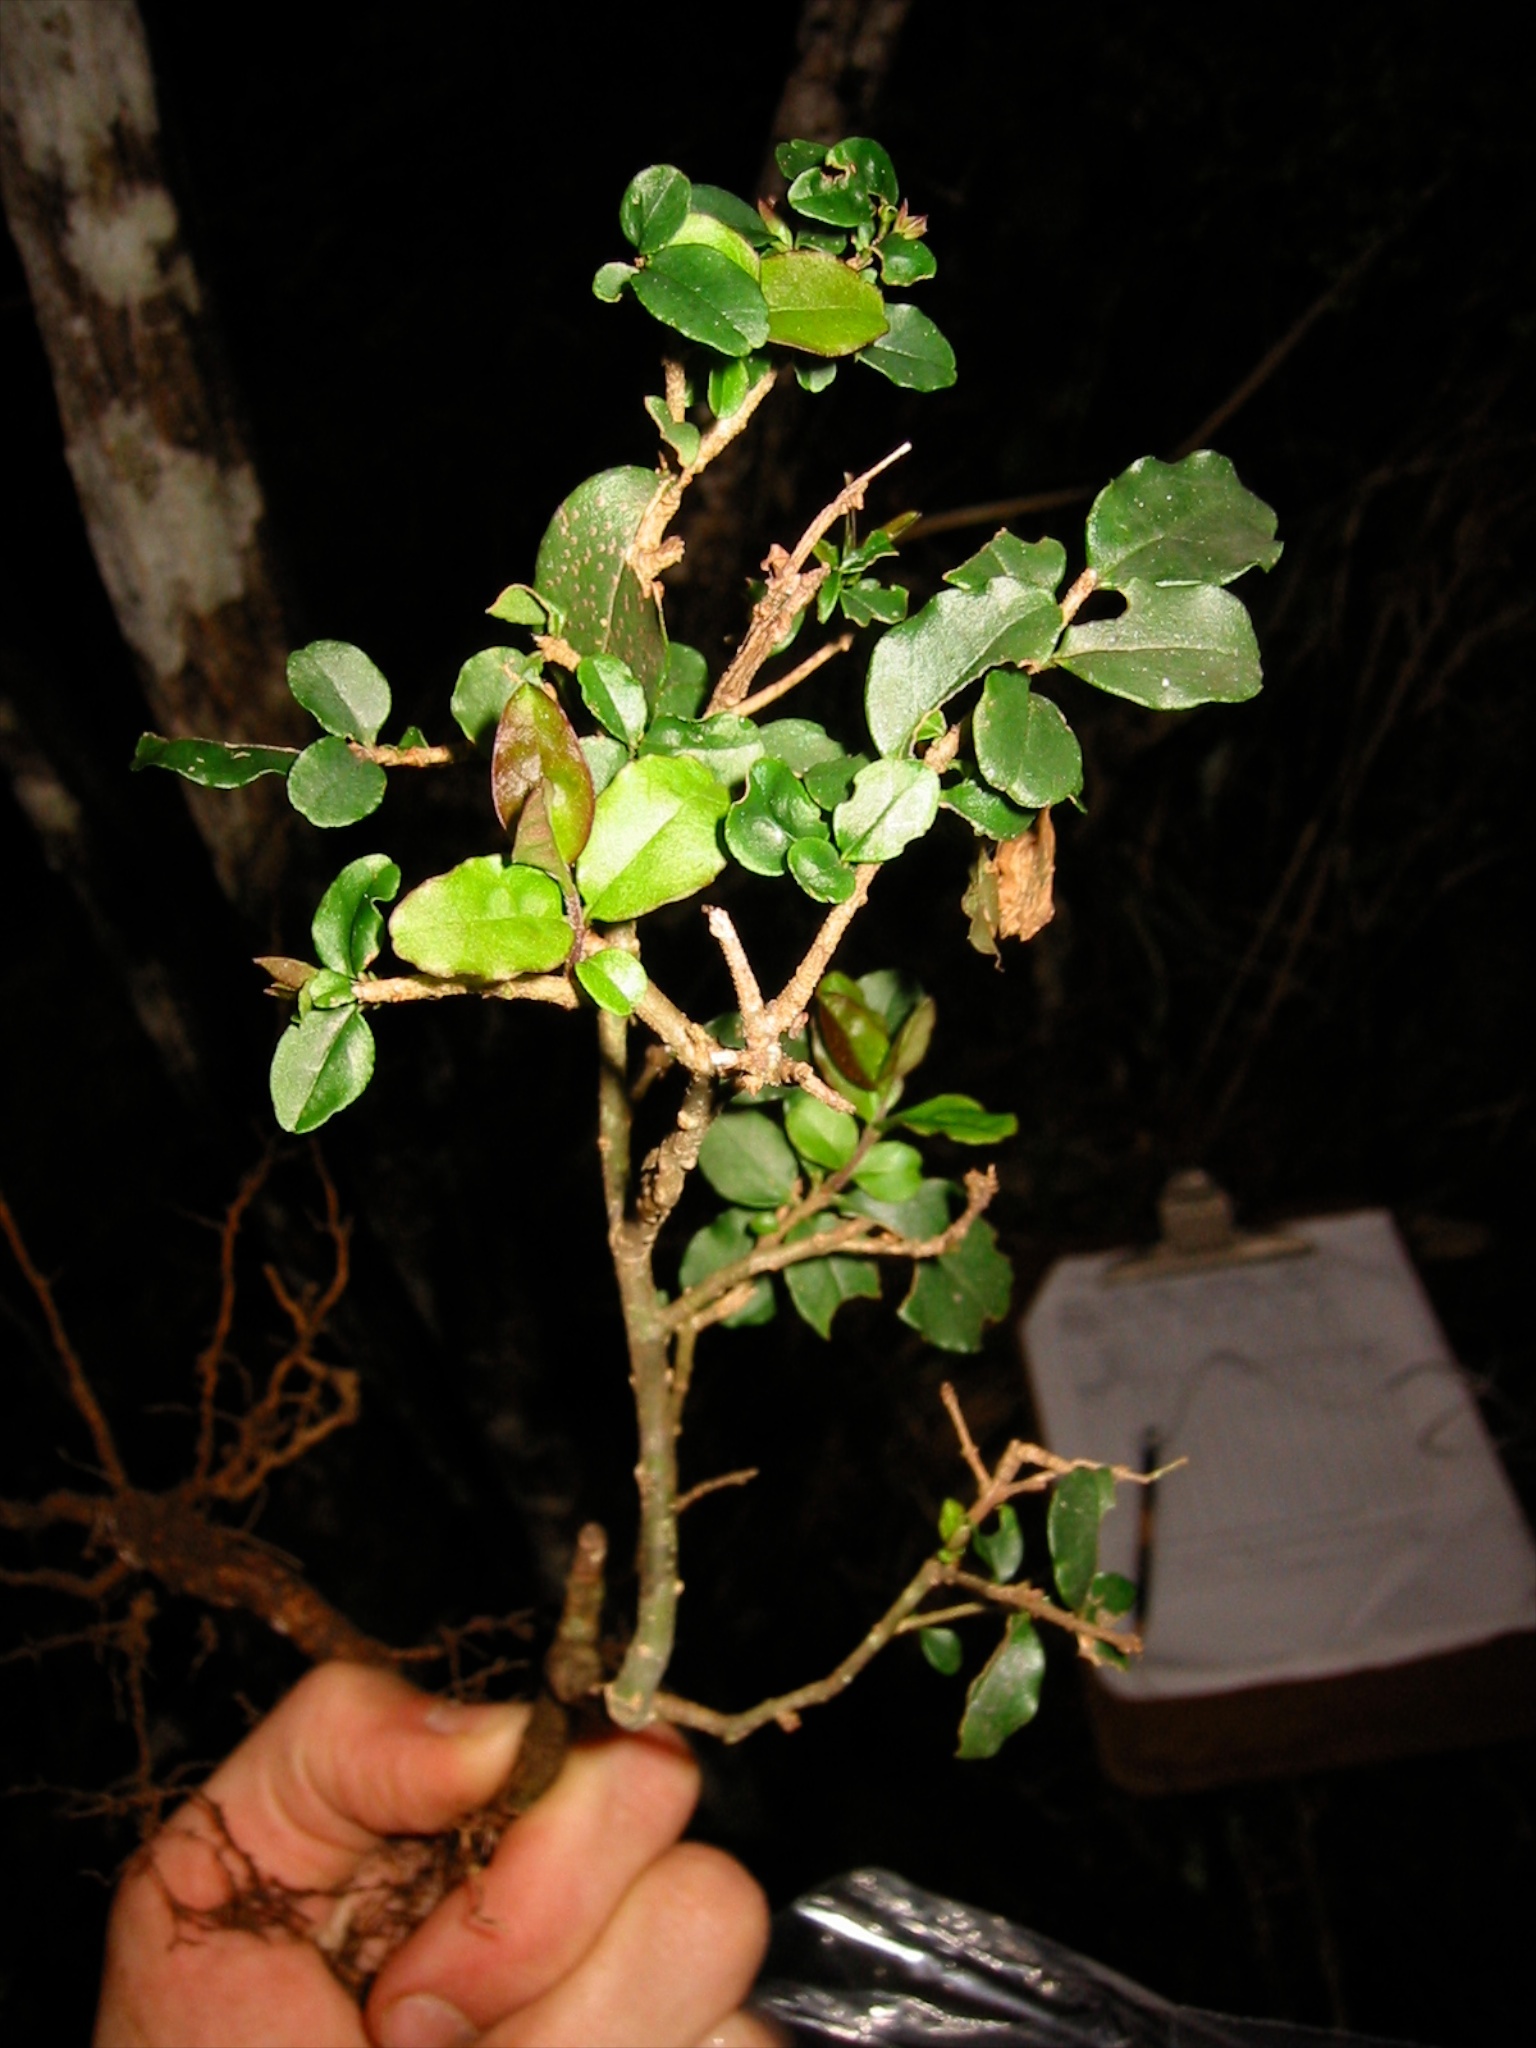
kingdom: Plantae
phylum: Tracheophyta
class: Magnoliopsida
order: Lamiales
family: Oleaceae
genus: Ligustrum
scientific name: Ligustrum sinense
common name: Chinese privet
